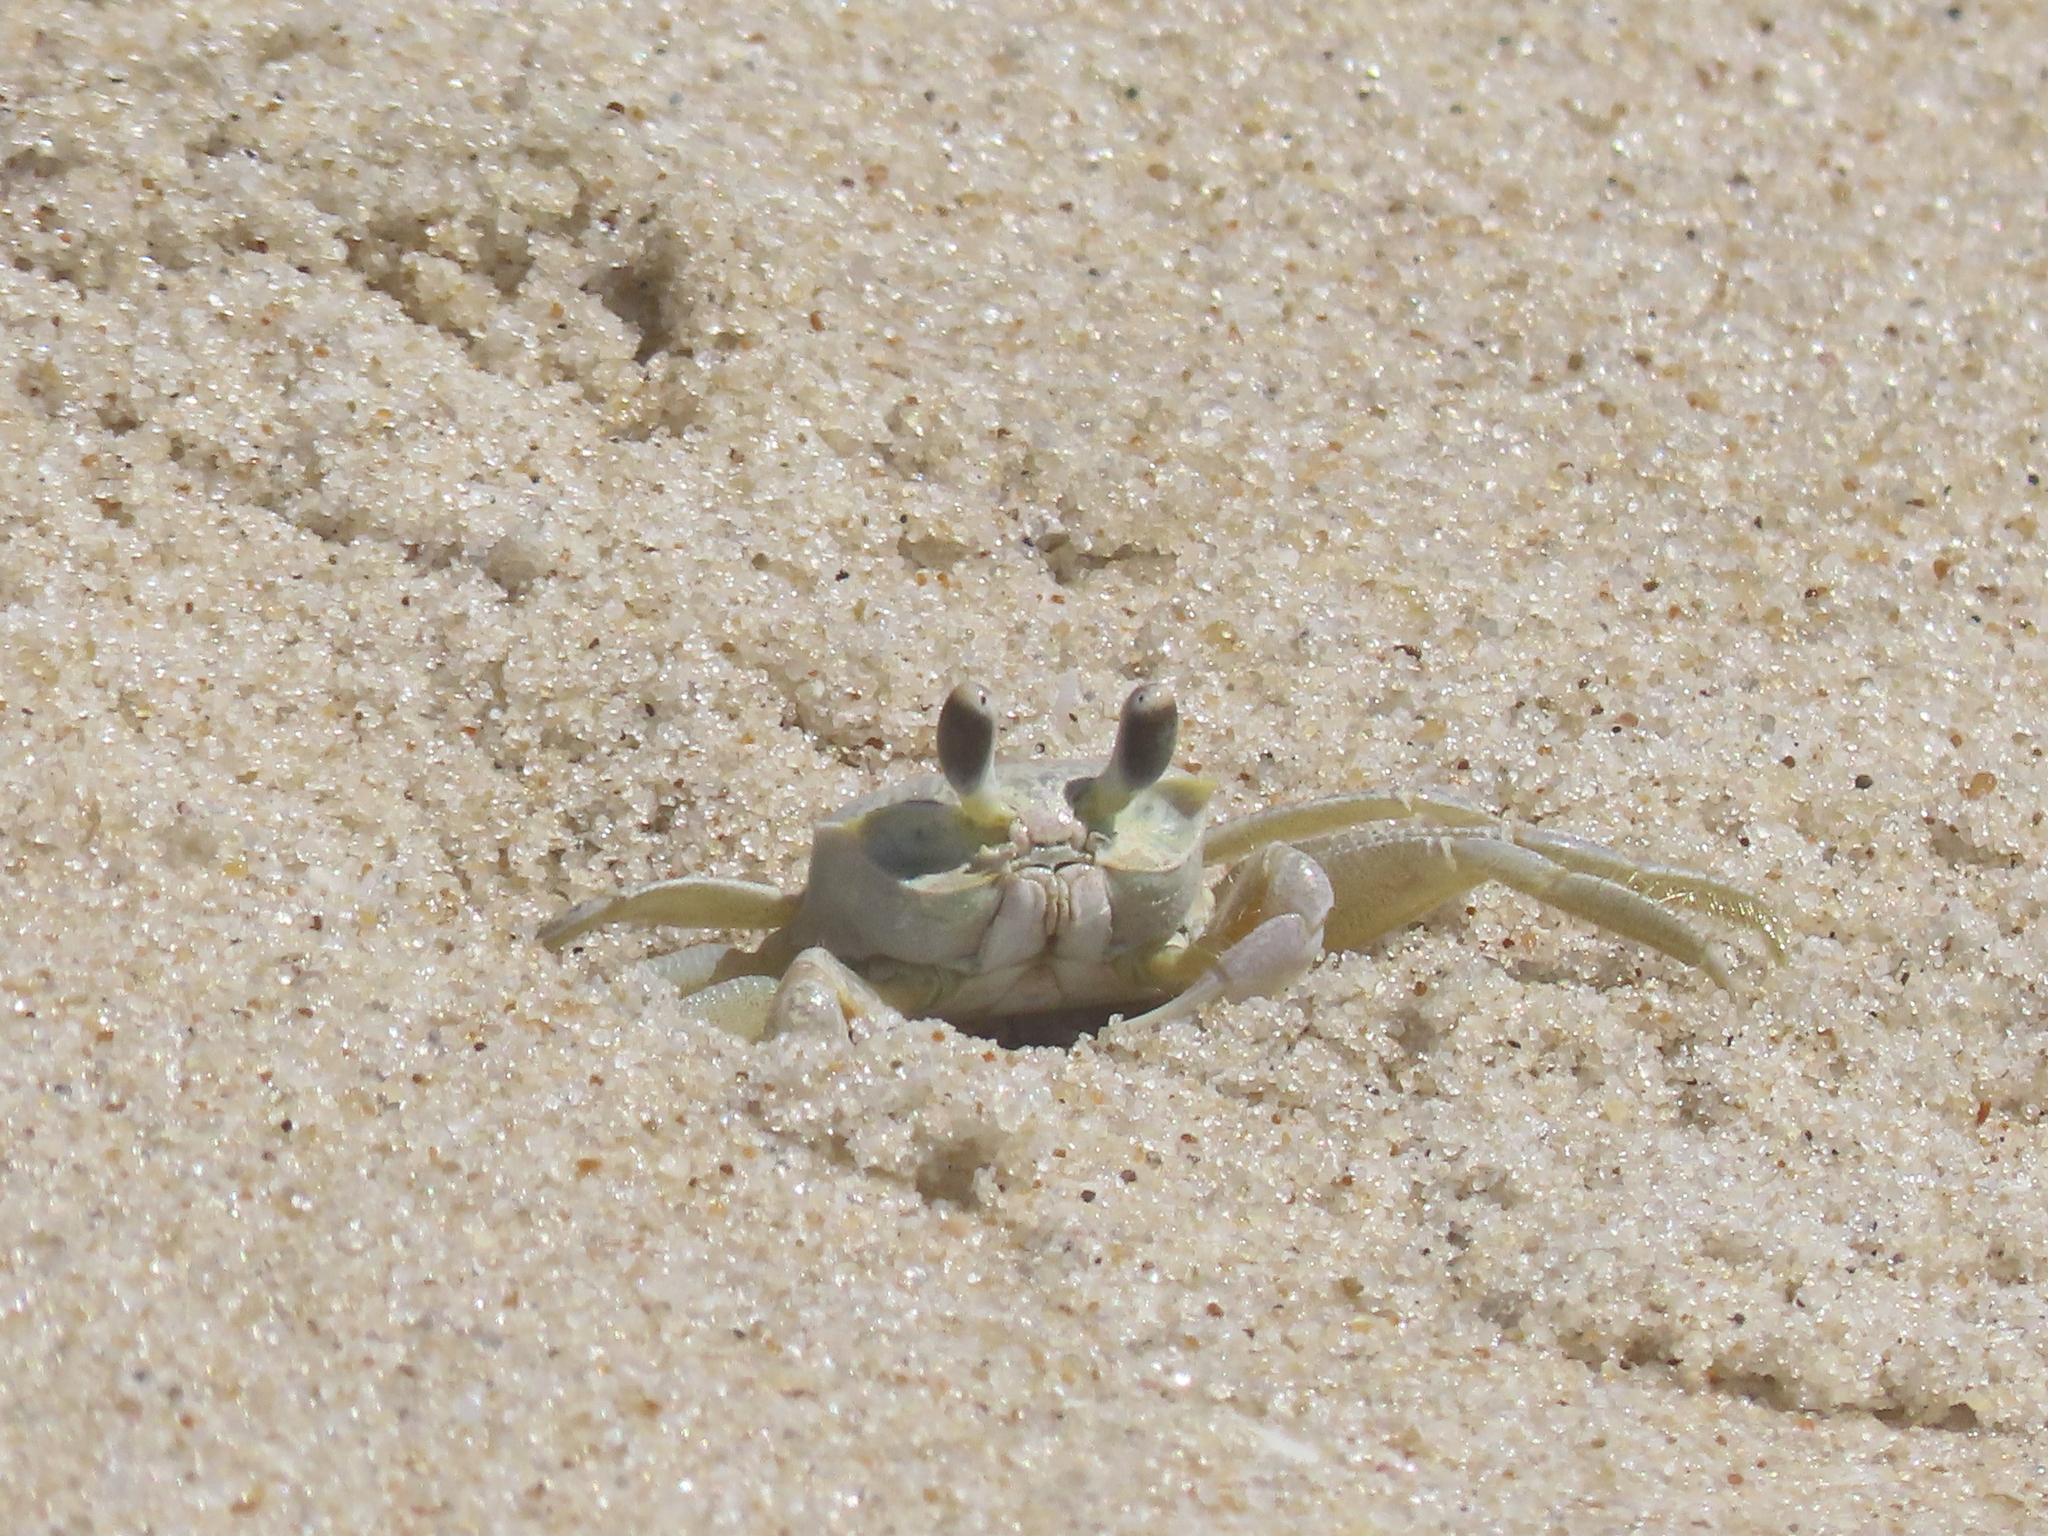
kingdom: Animalia
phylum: Arthropoda
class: Malacostraca
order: Decapoda
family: Ocypodidae
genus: Ocypode
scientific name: Ocypode quadrata
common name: Ghost crab
